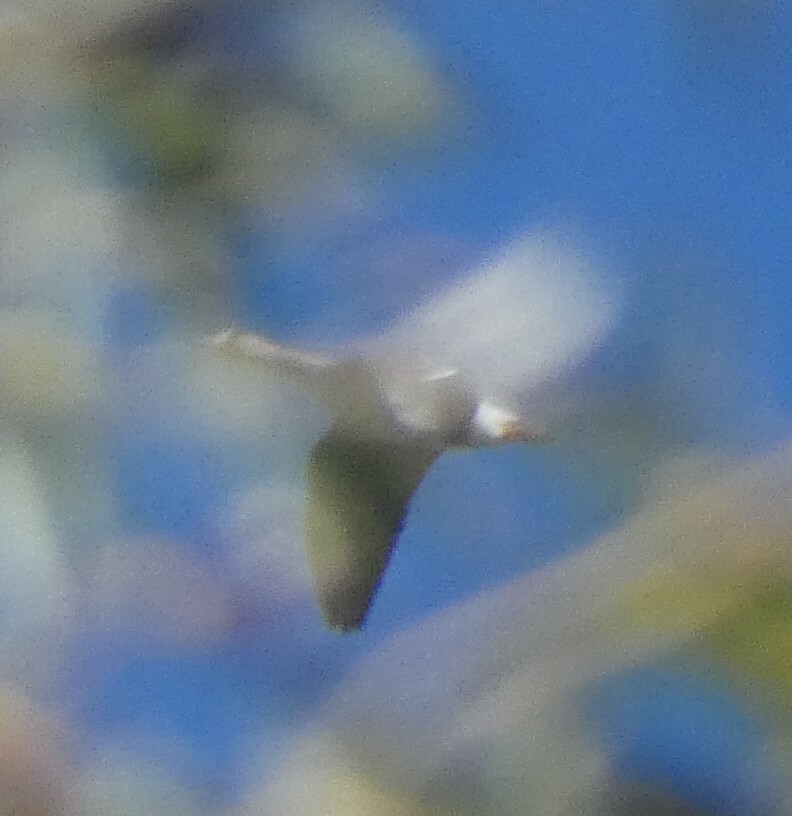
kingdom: Animalia
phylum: Chordata
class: Aves
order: Anseriformes
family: Anatidae
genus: Anser
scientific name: Anser albifrons
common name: Greater white-fronted goose
